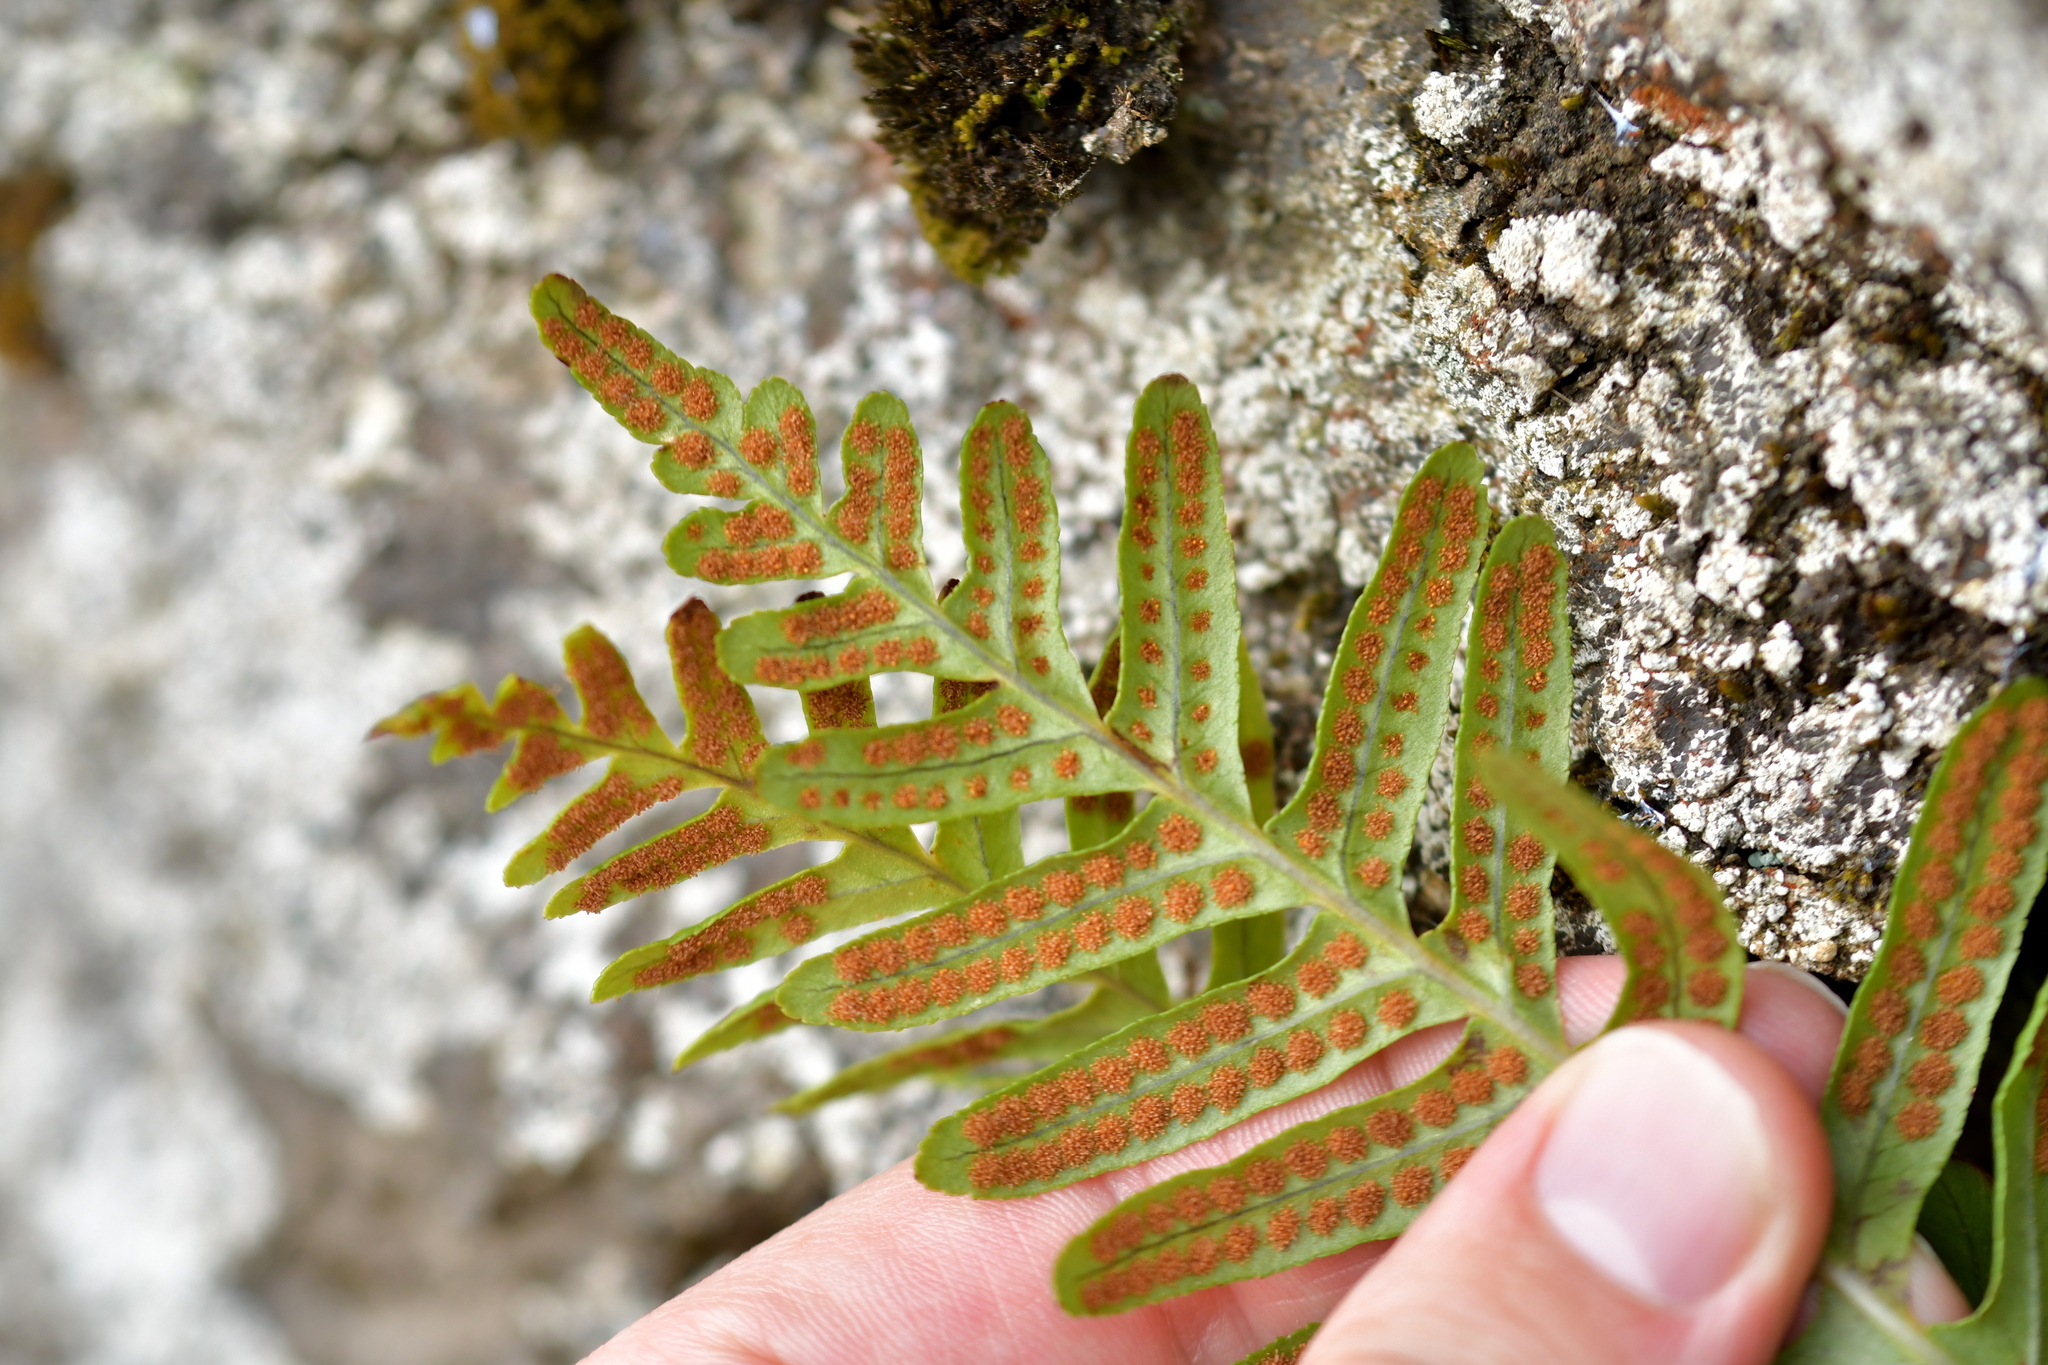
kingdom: Plantae
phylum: Tracheophyta
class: Polypodiopsida
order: Polypodiales
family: Polypodiaceae
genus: Polypodium
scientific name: Polypodium vulgare
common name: Common polypody
